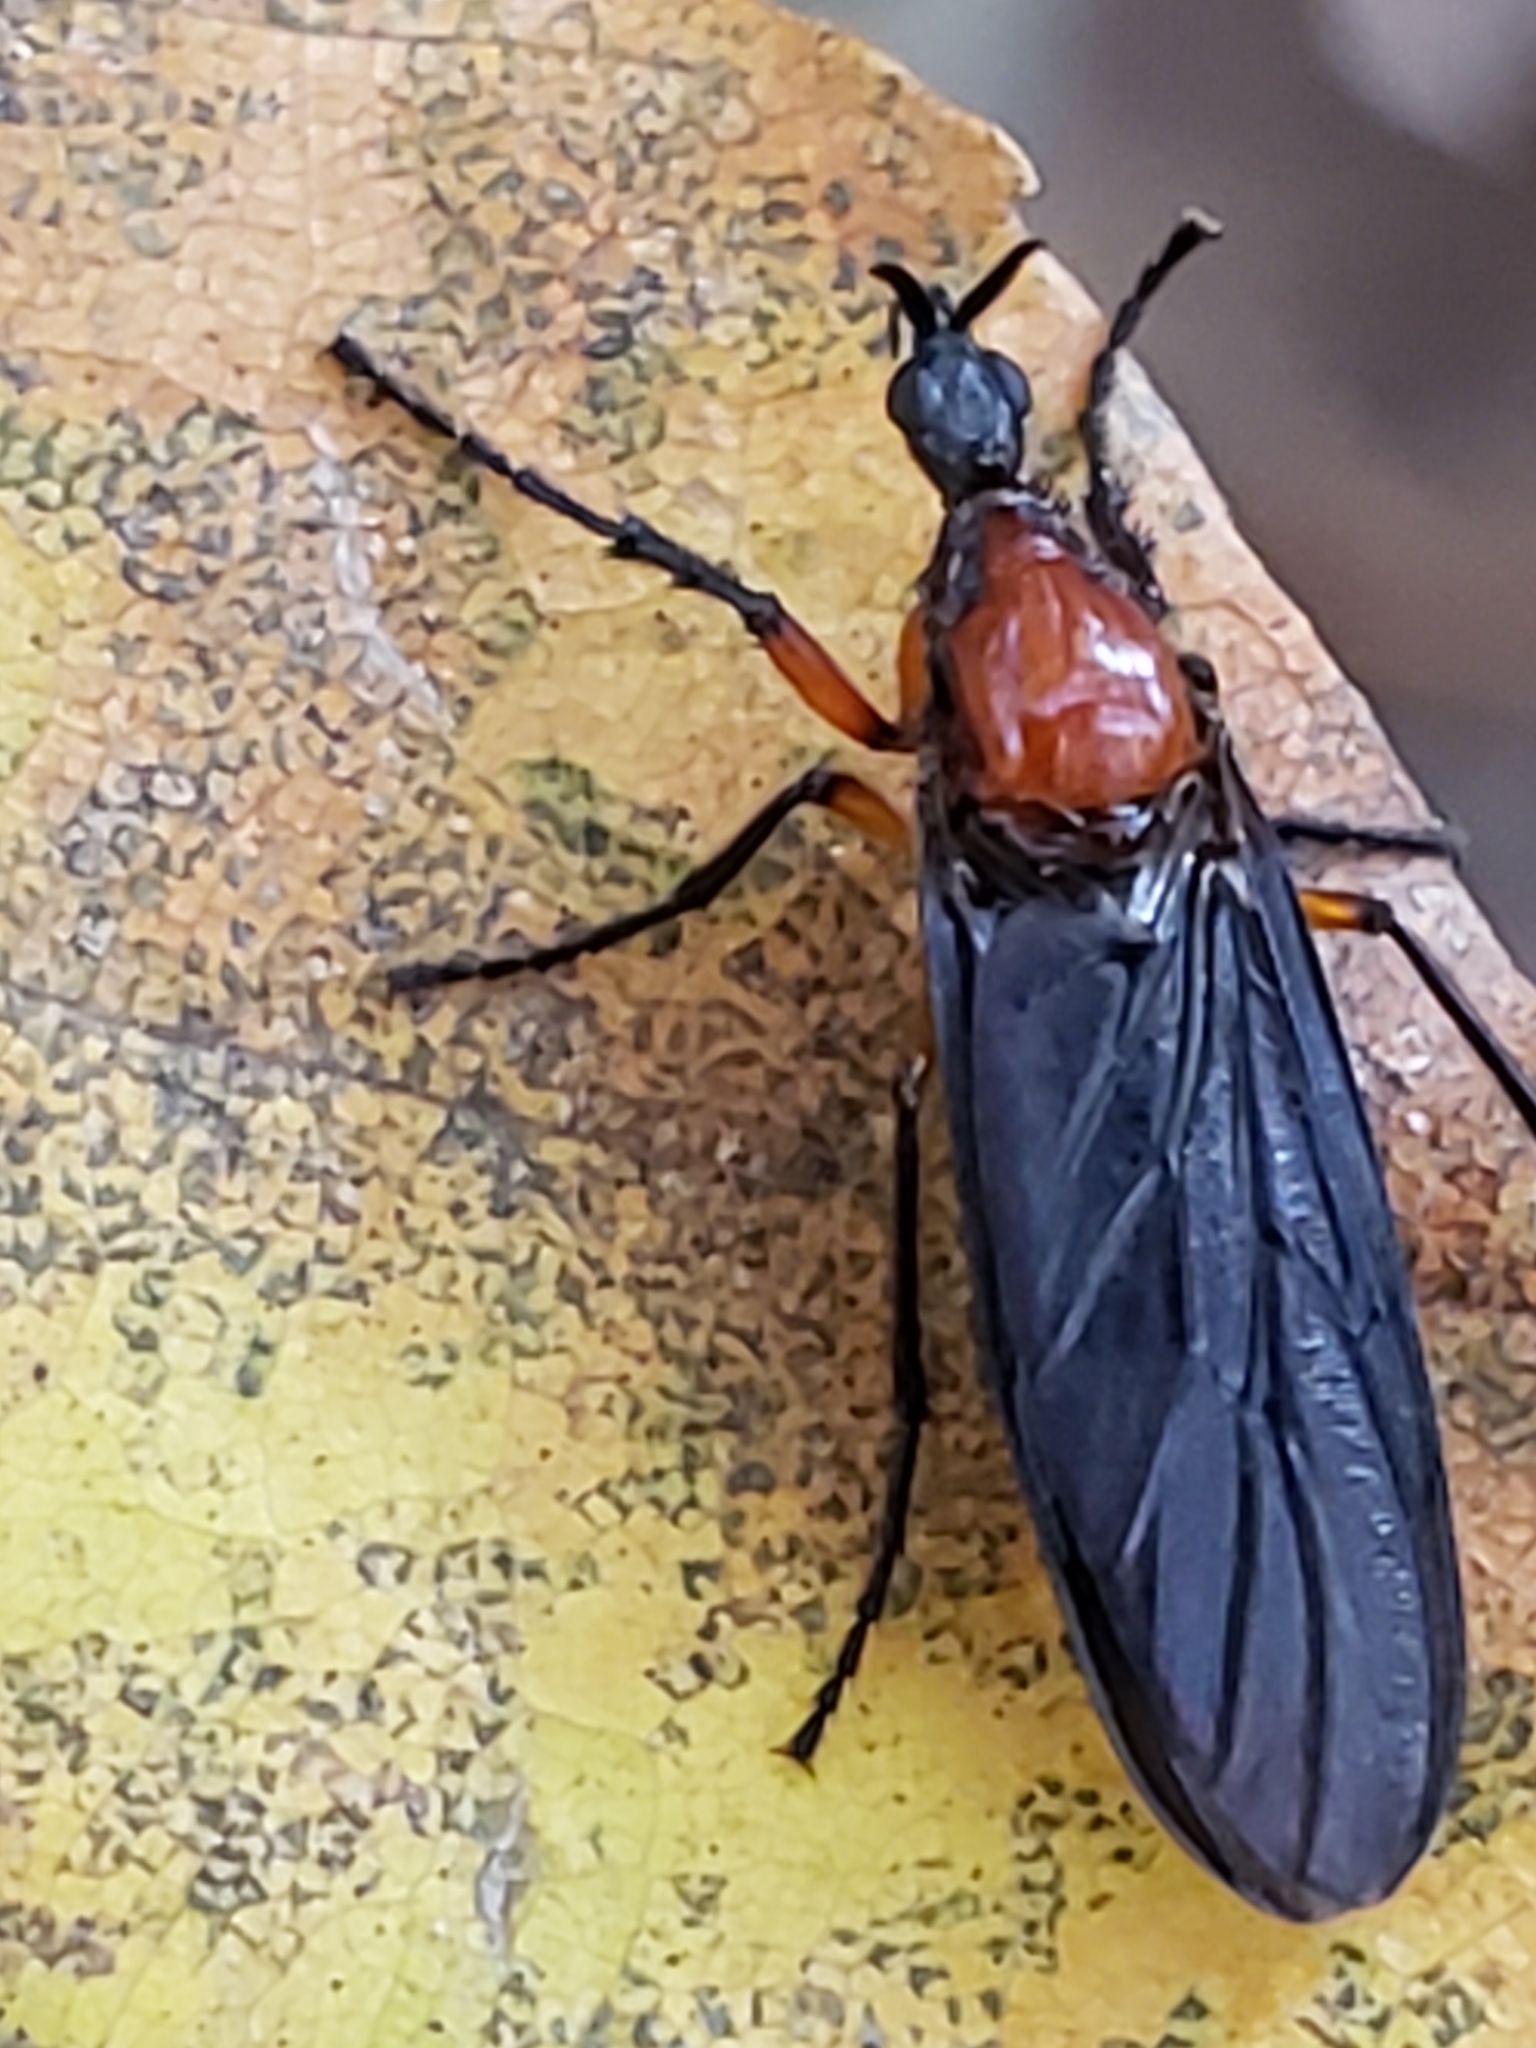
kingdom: Animalia
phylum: Arthropoda
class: Insecta
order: Diptera
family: Bibionidae
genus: Dilophus
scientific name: Dilophus serotinus
